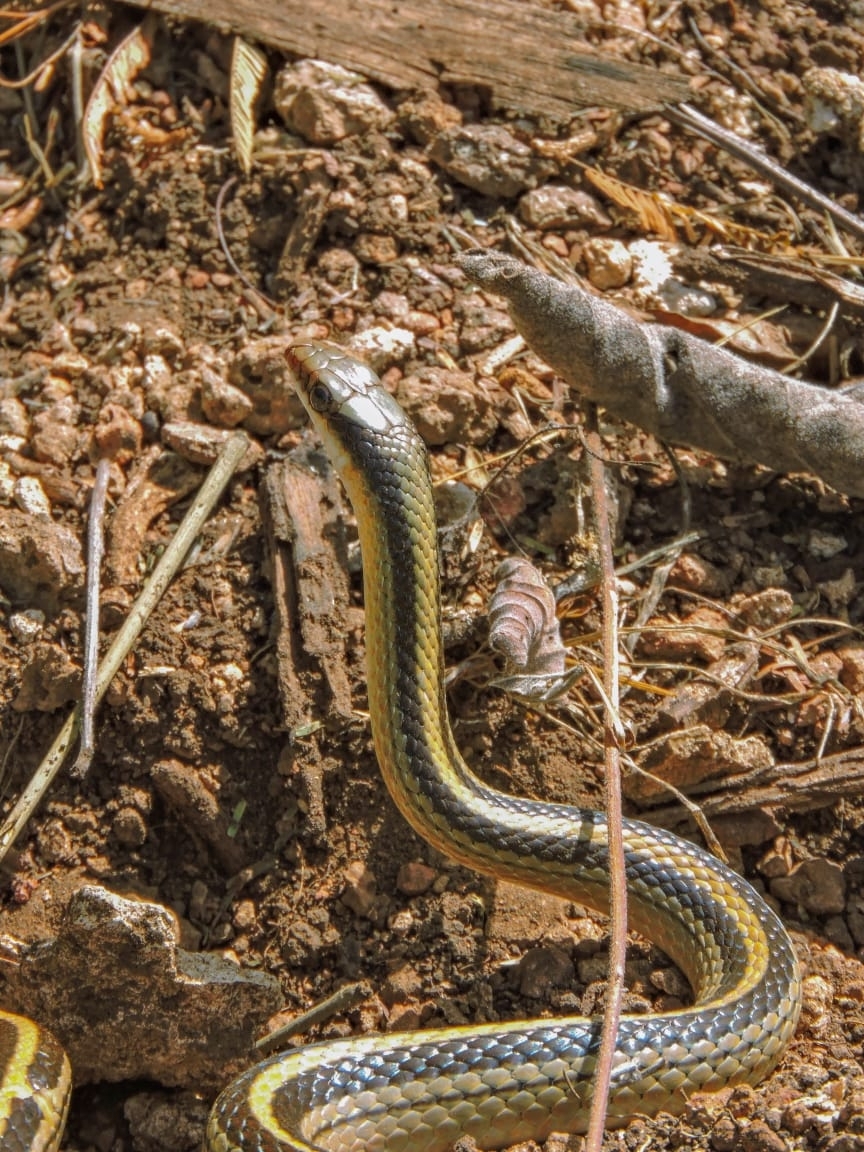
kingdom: Animalia
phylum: Chordata
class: Squamata
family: Colubridae
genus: Salvadora
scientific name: Salvadora lineata
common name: Texas patchnose snake
